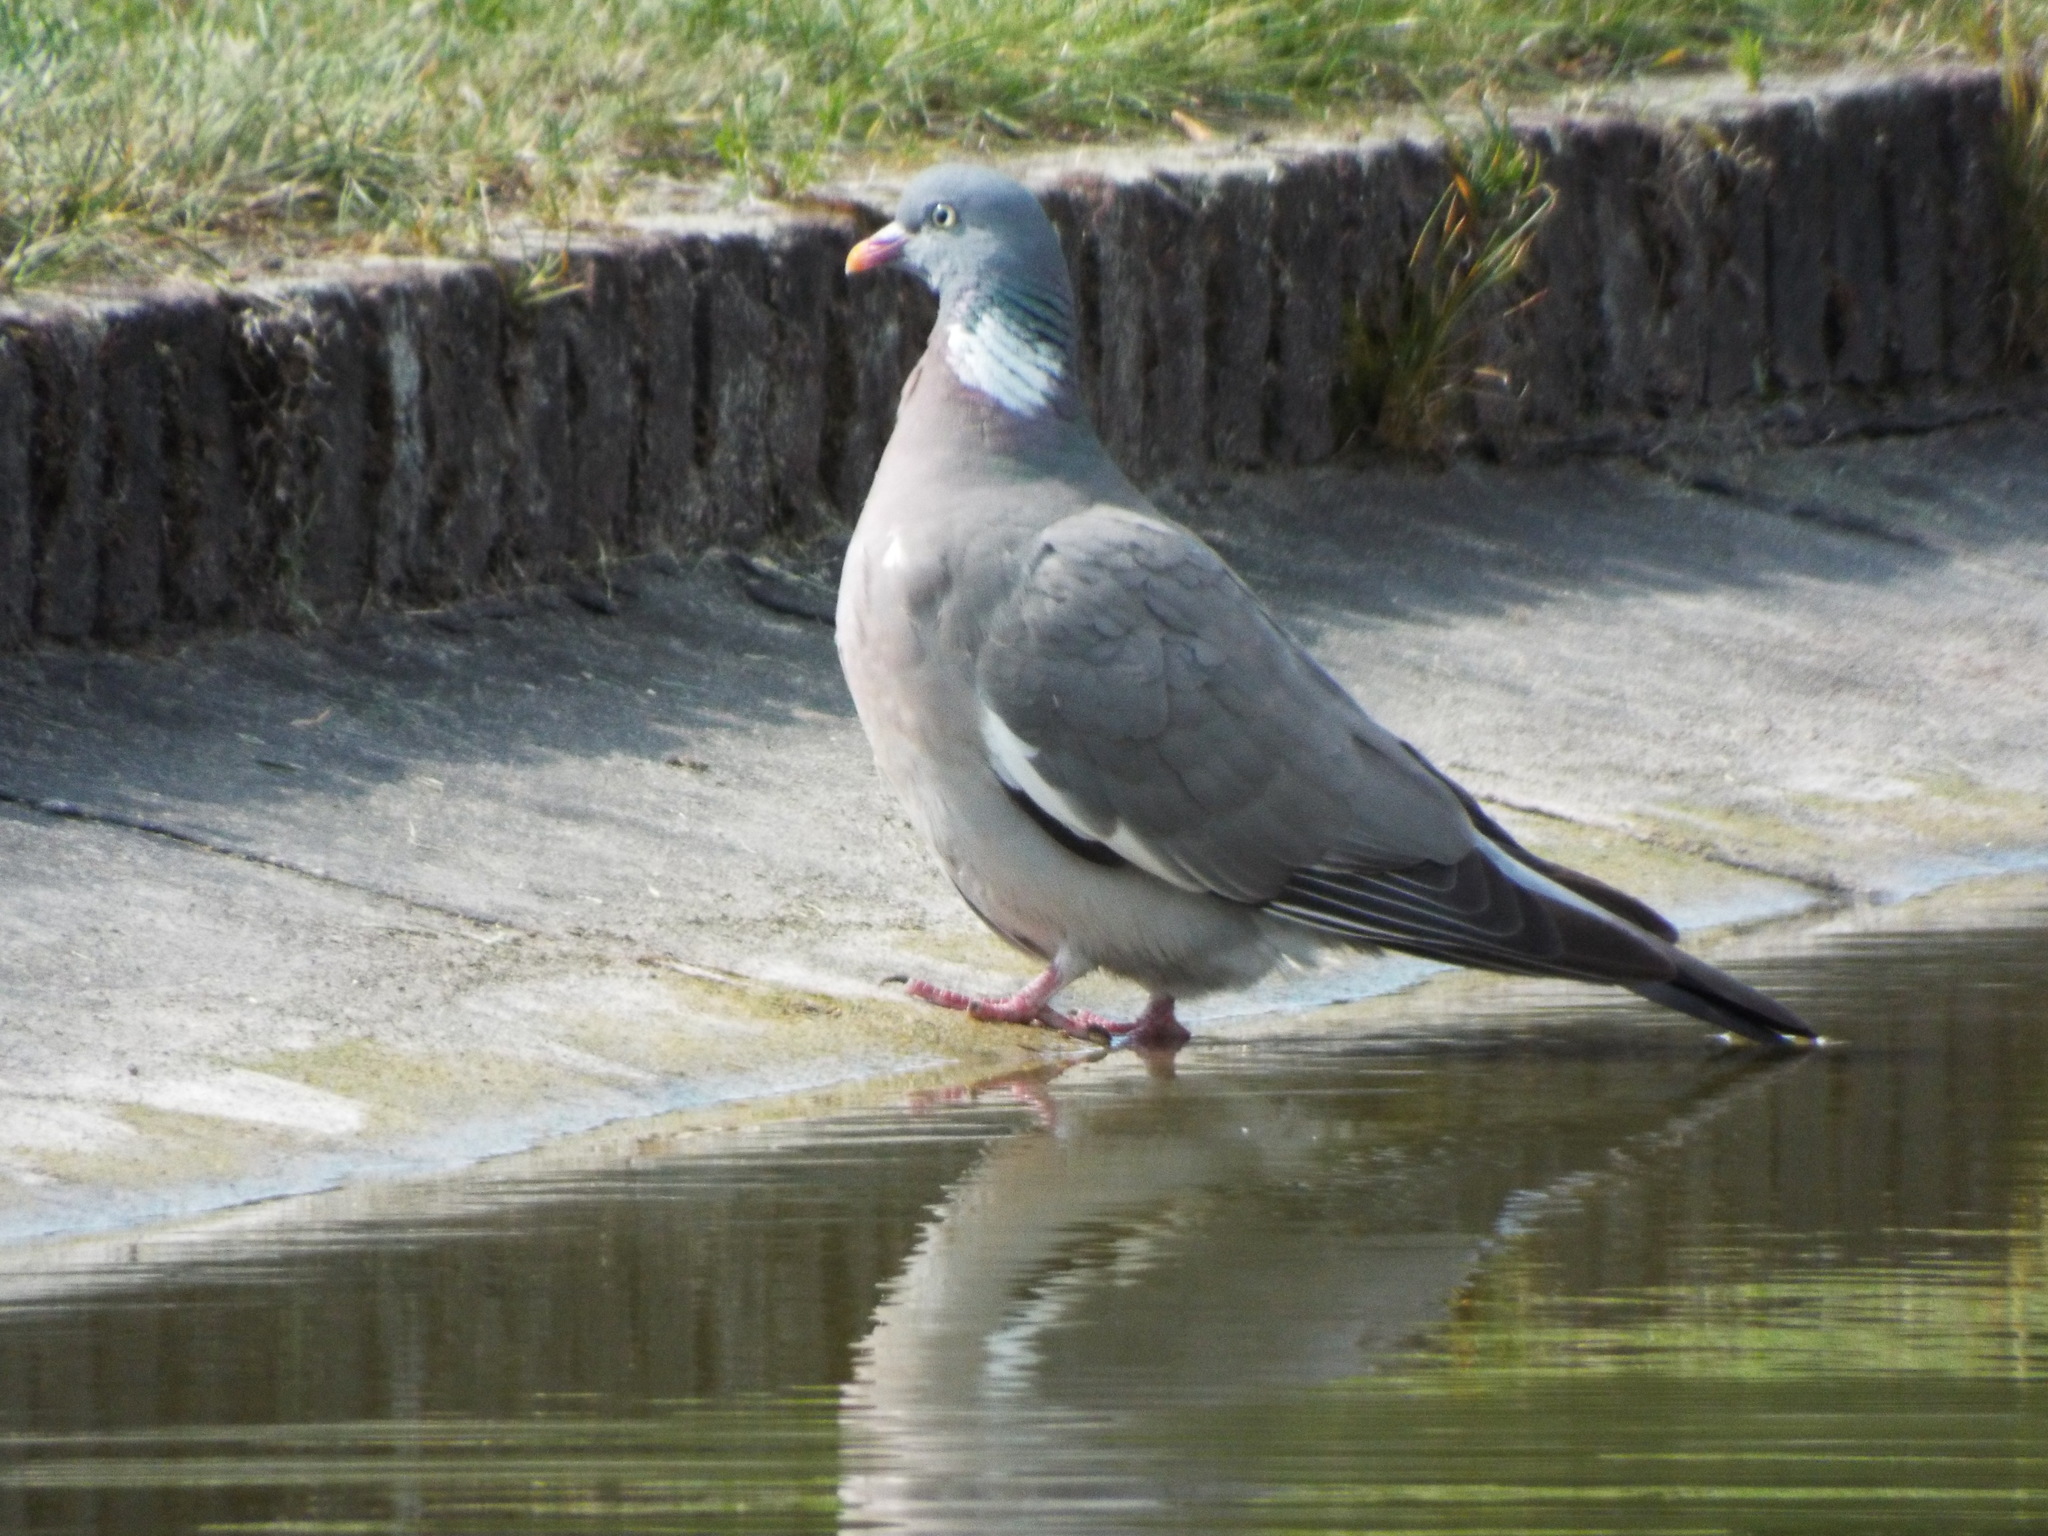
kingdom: Animalia
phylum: Chordata
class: Aves
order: Columbiformes
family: Columbidae
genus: Columba
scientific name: Columba palumbus
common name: Common wood pigeon
